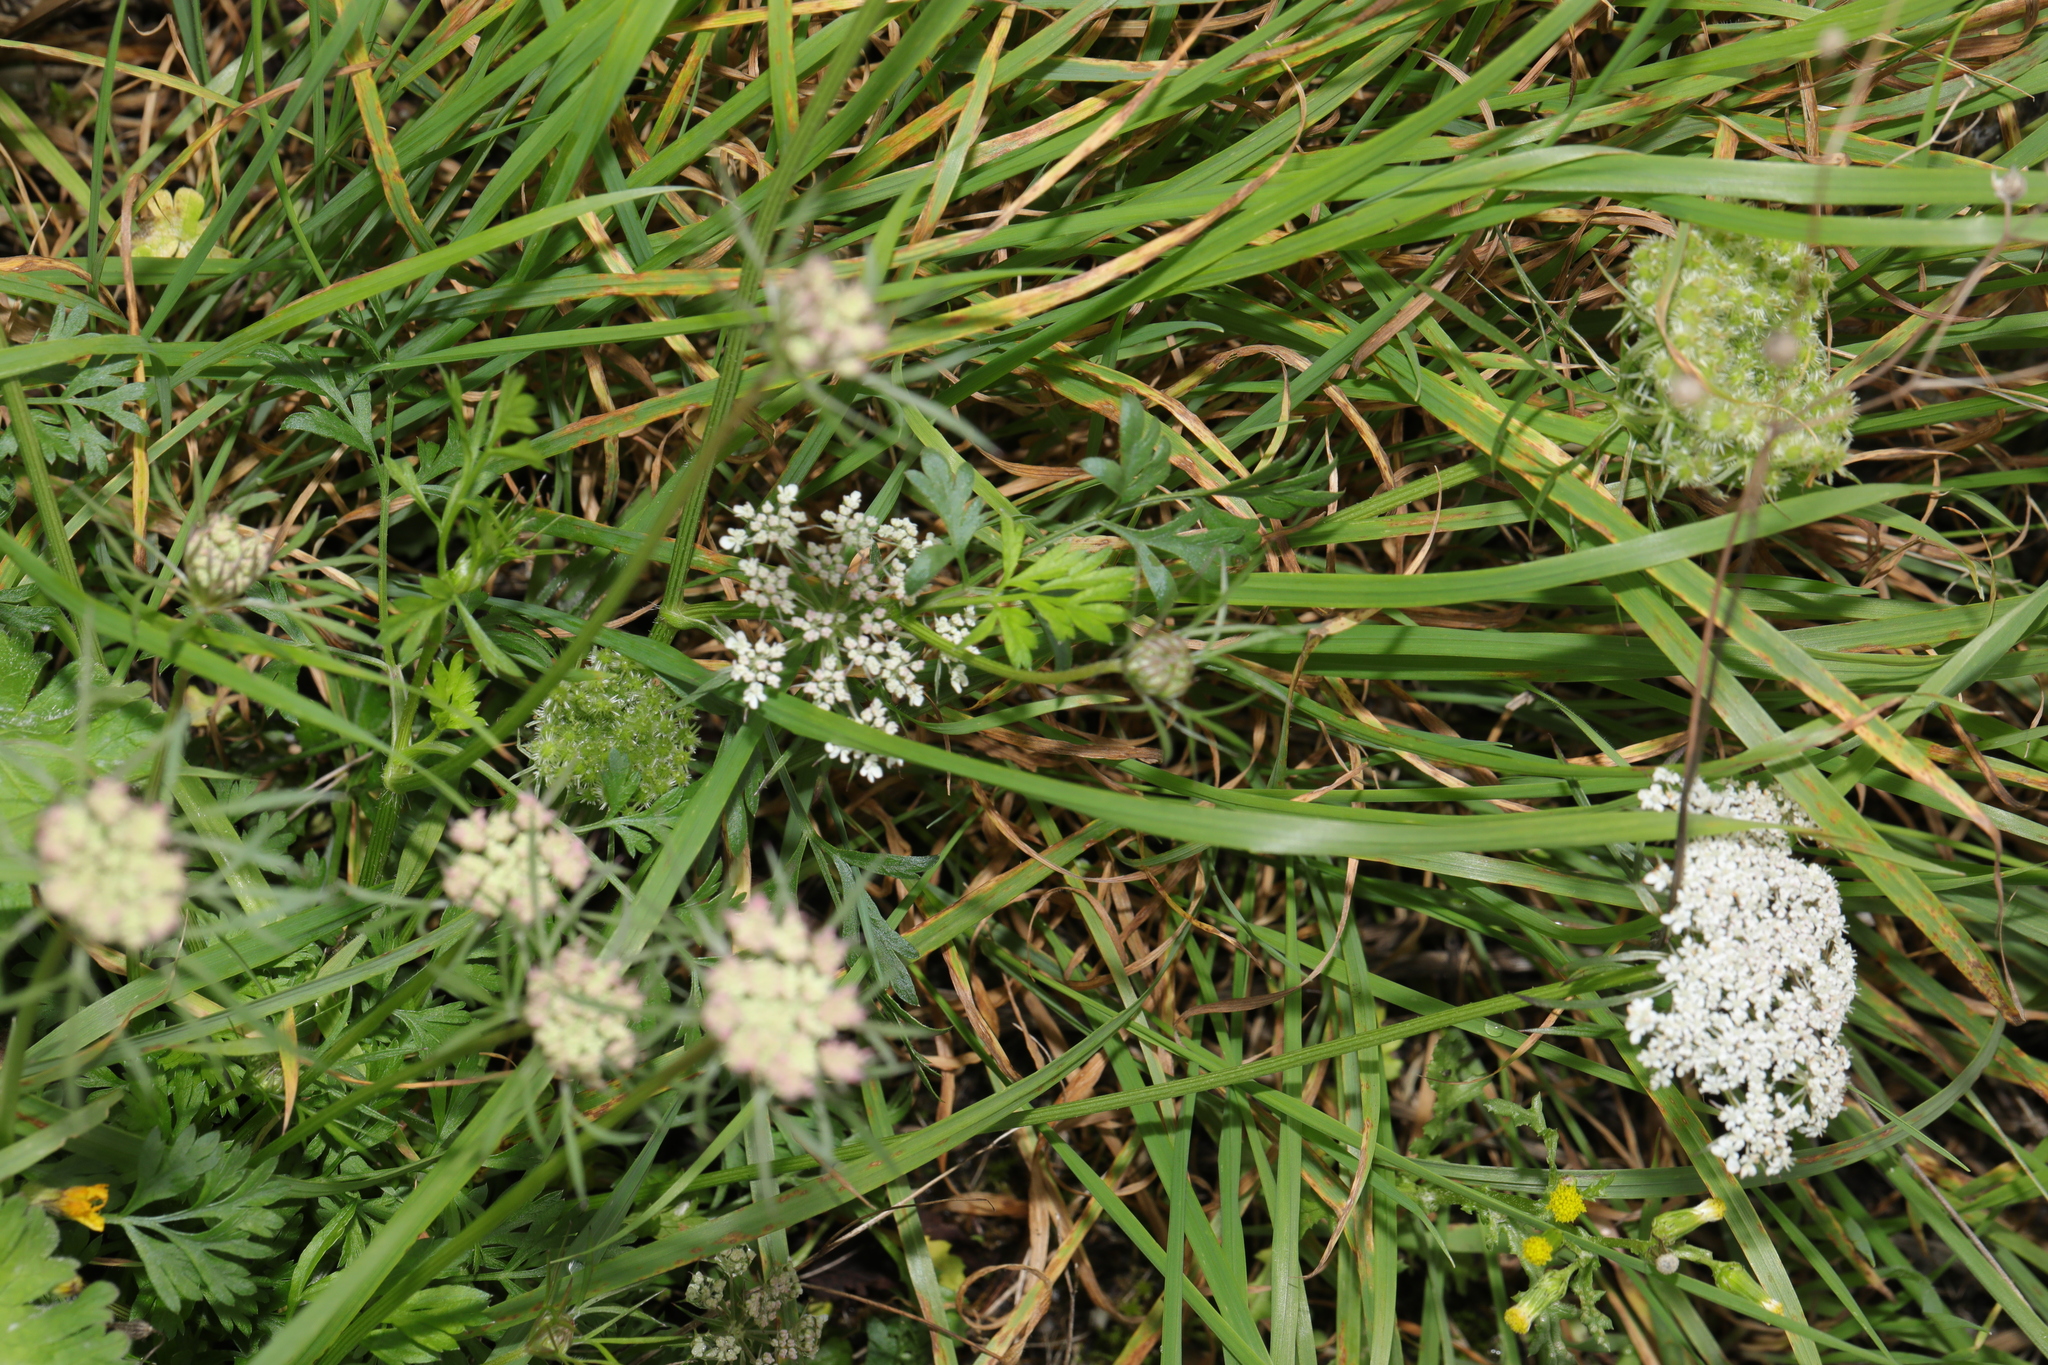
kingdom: Plantae
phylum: Tracheophyta
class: Magnoliopsida
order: Apiales
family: Apiaceae
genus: Daucus
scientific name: Daucus carota
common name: Wild carrot
